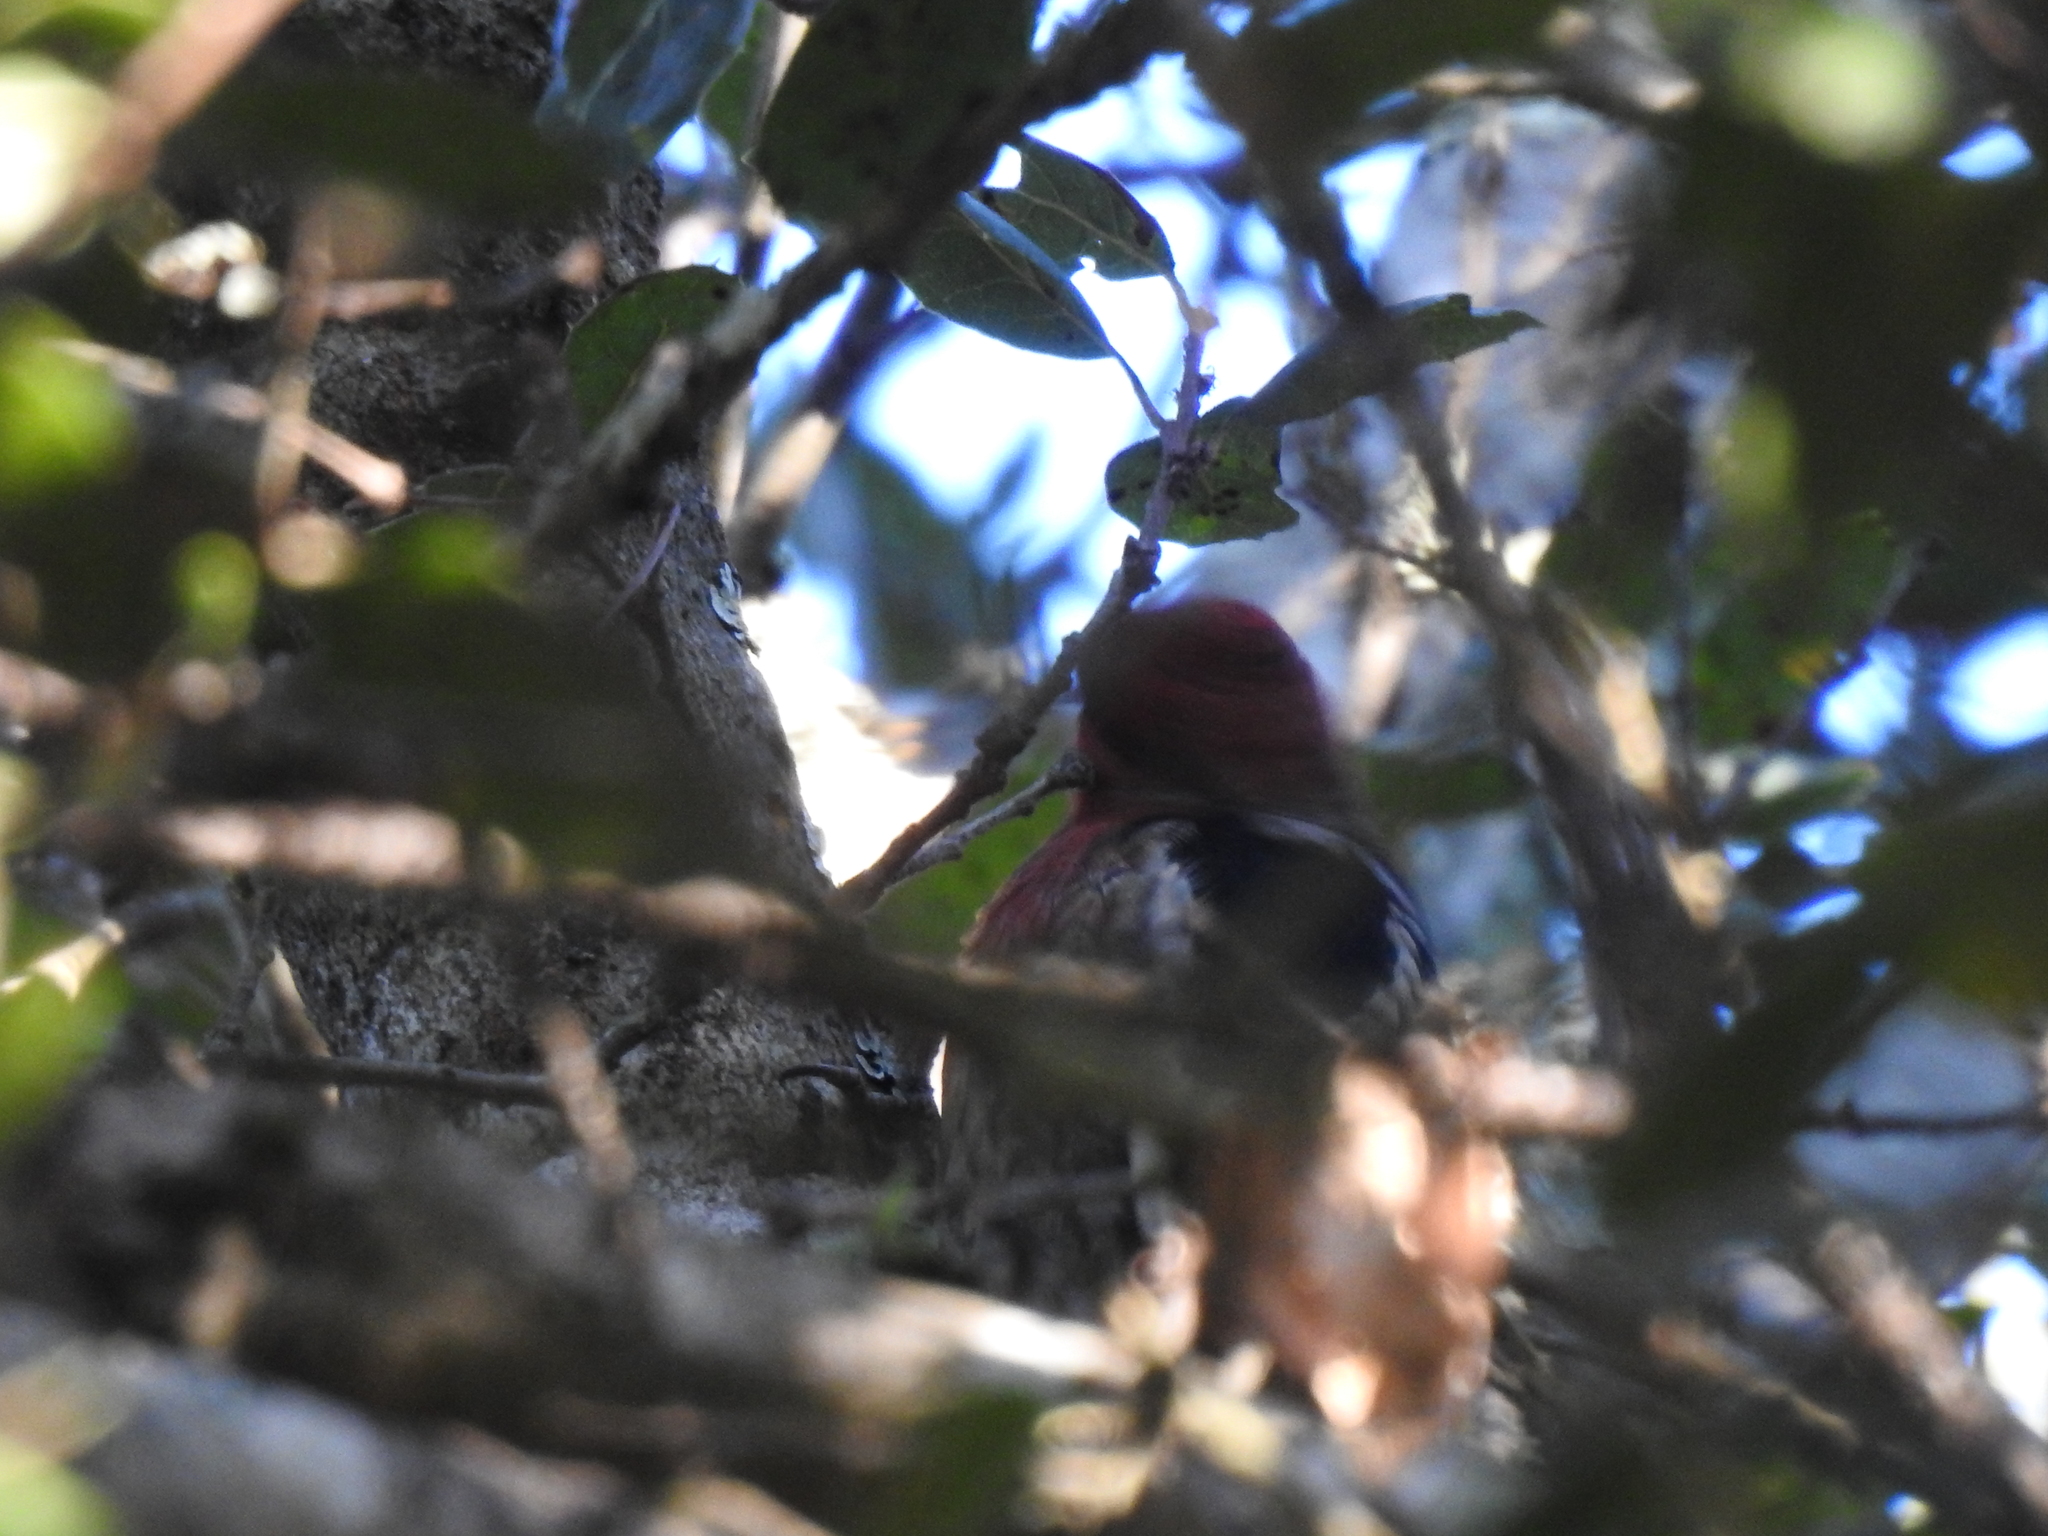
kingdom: Animalia
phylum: Chordata
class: Aves
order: Piciformes
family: Picidae
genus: Sphyrapicus
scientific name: Sphyrapicus ruber
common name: Red-breasted sapsucker
